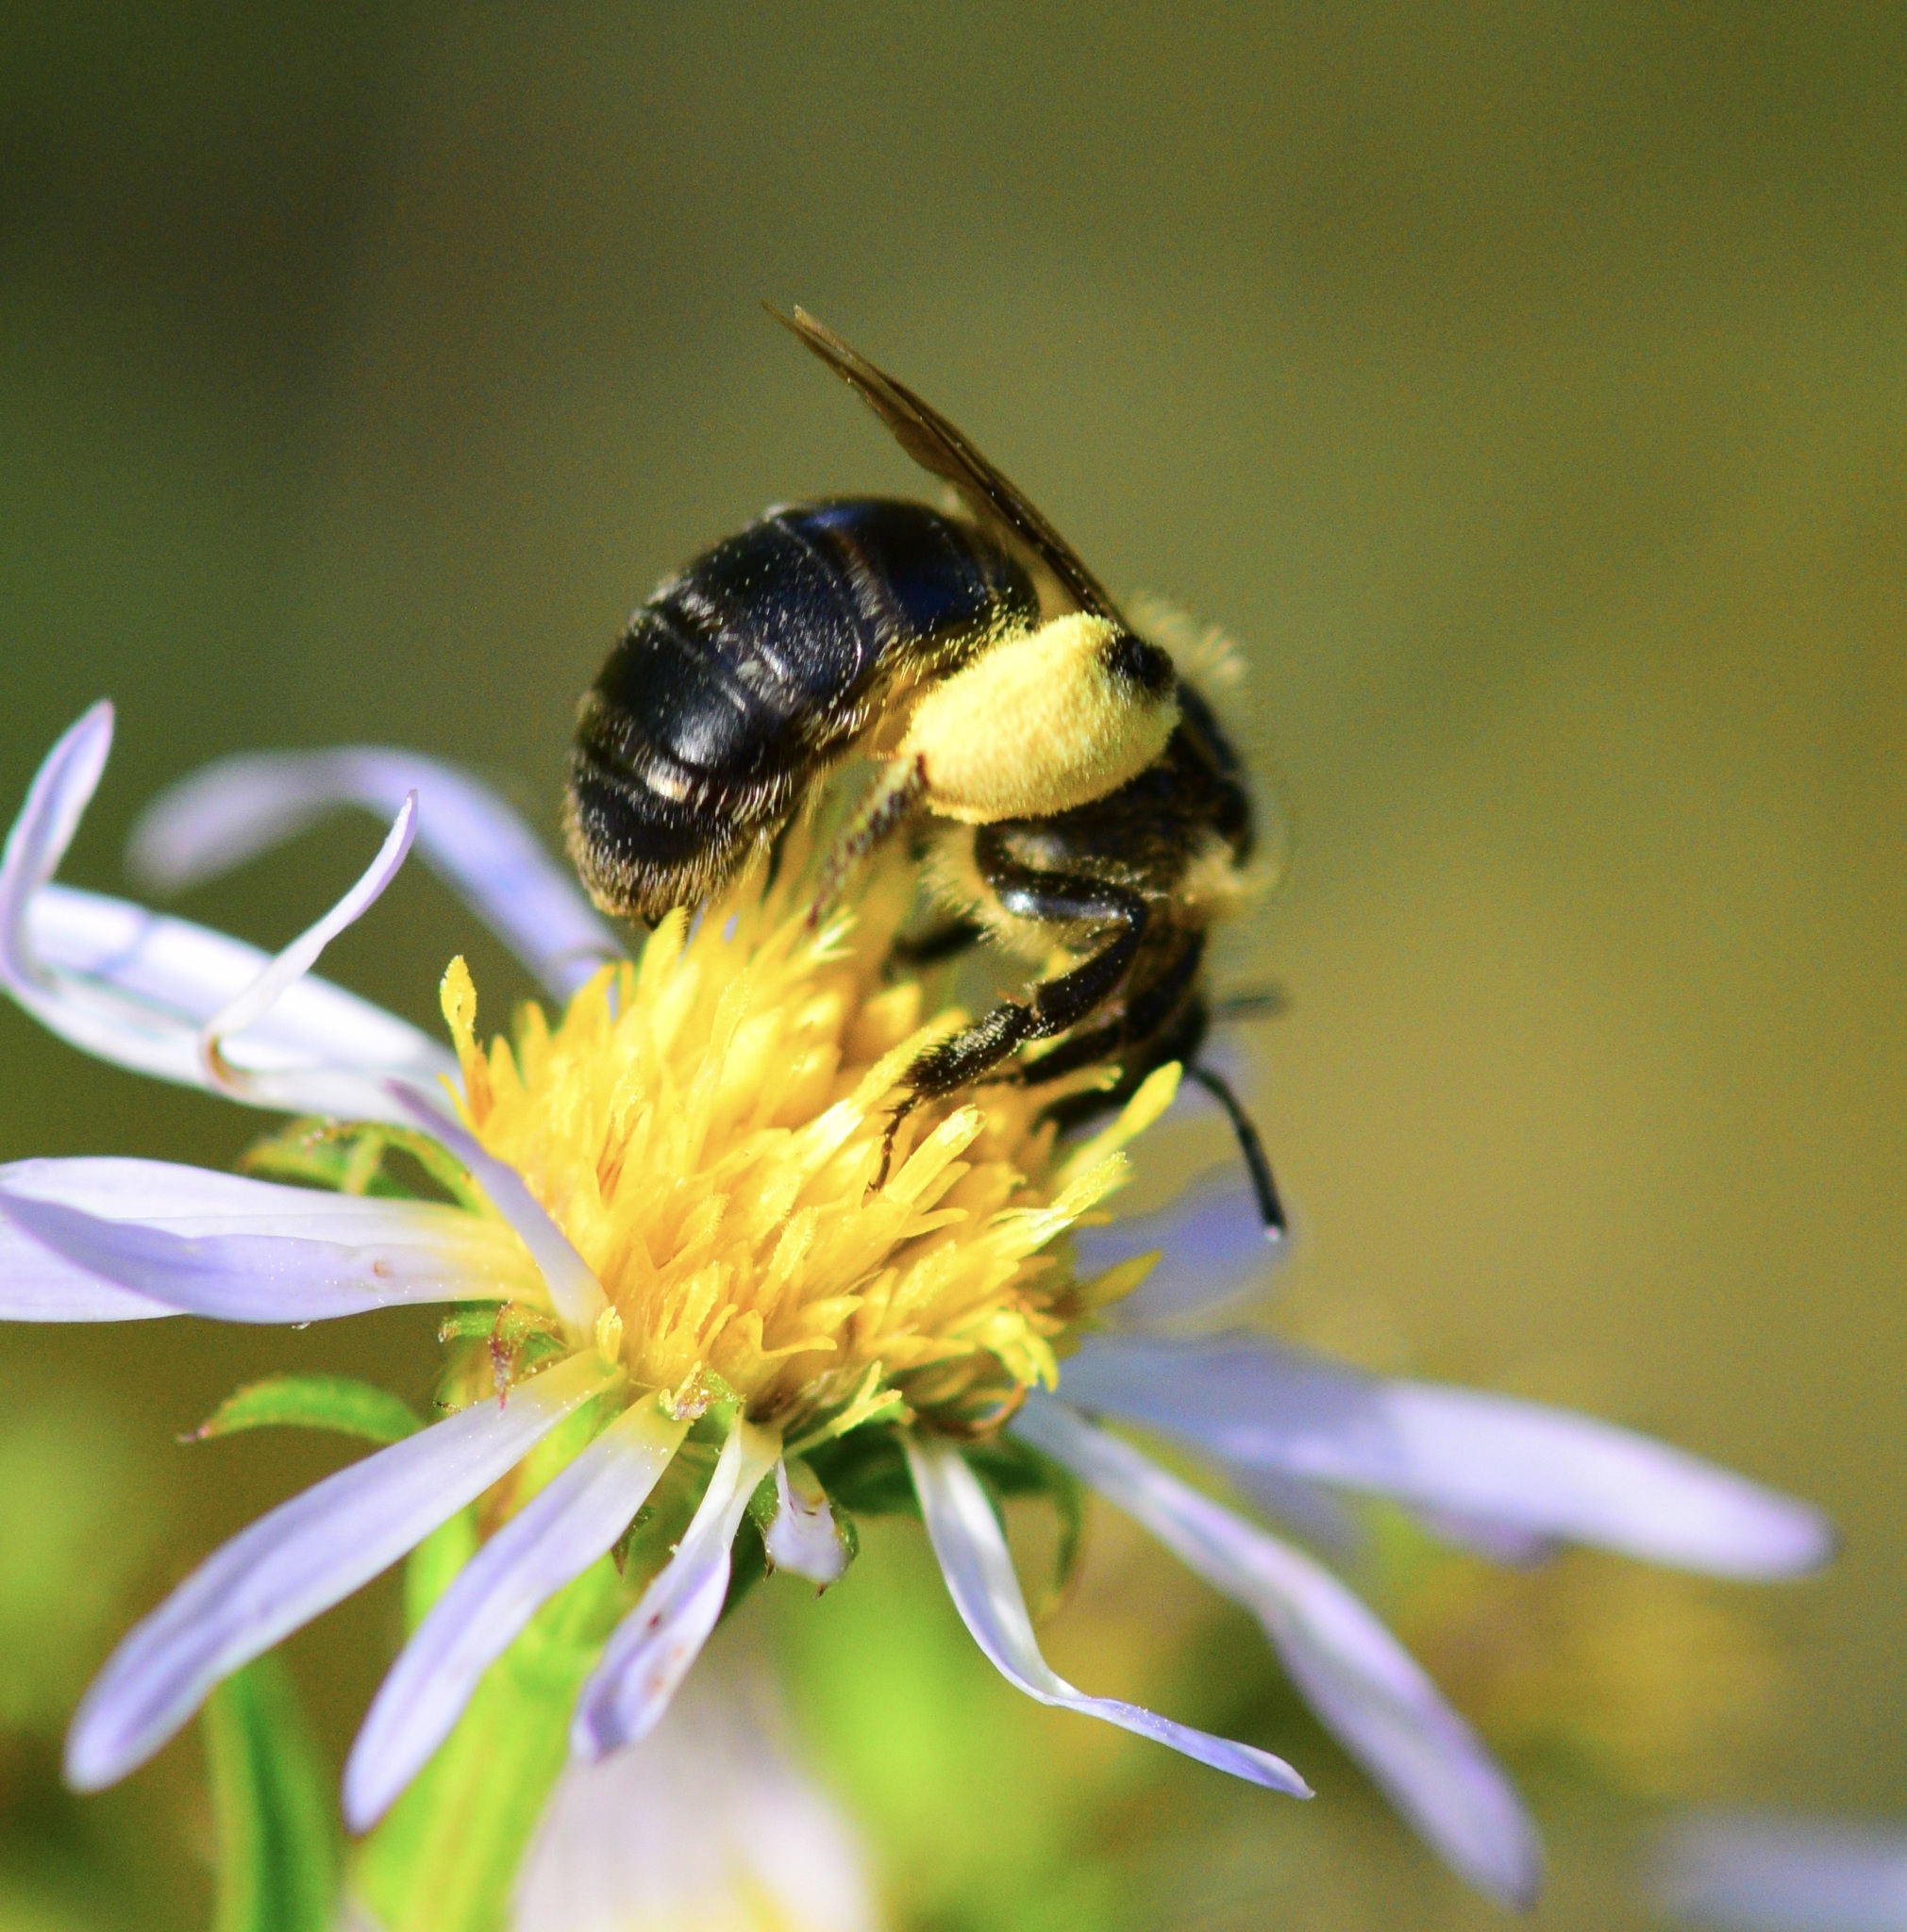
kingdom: Animalia
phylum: Arthropoda
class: Insecta
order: Hymenoptera
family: Andrenidae
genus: Andrena
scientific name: Andrena asteris
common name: Aster mining bee
